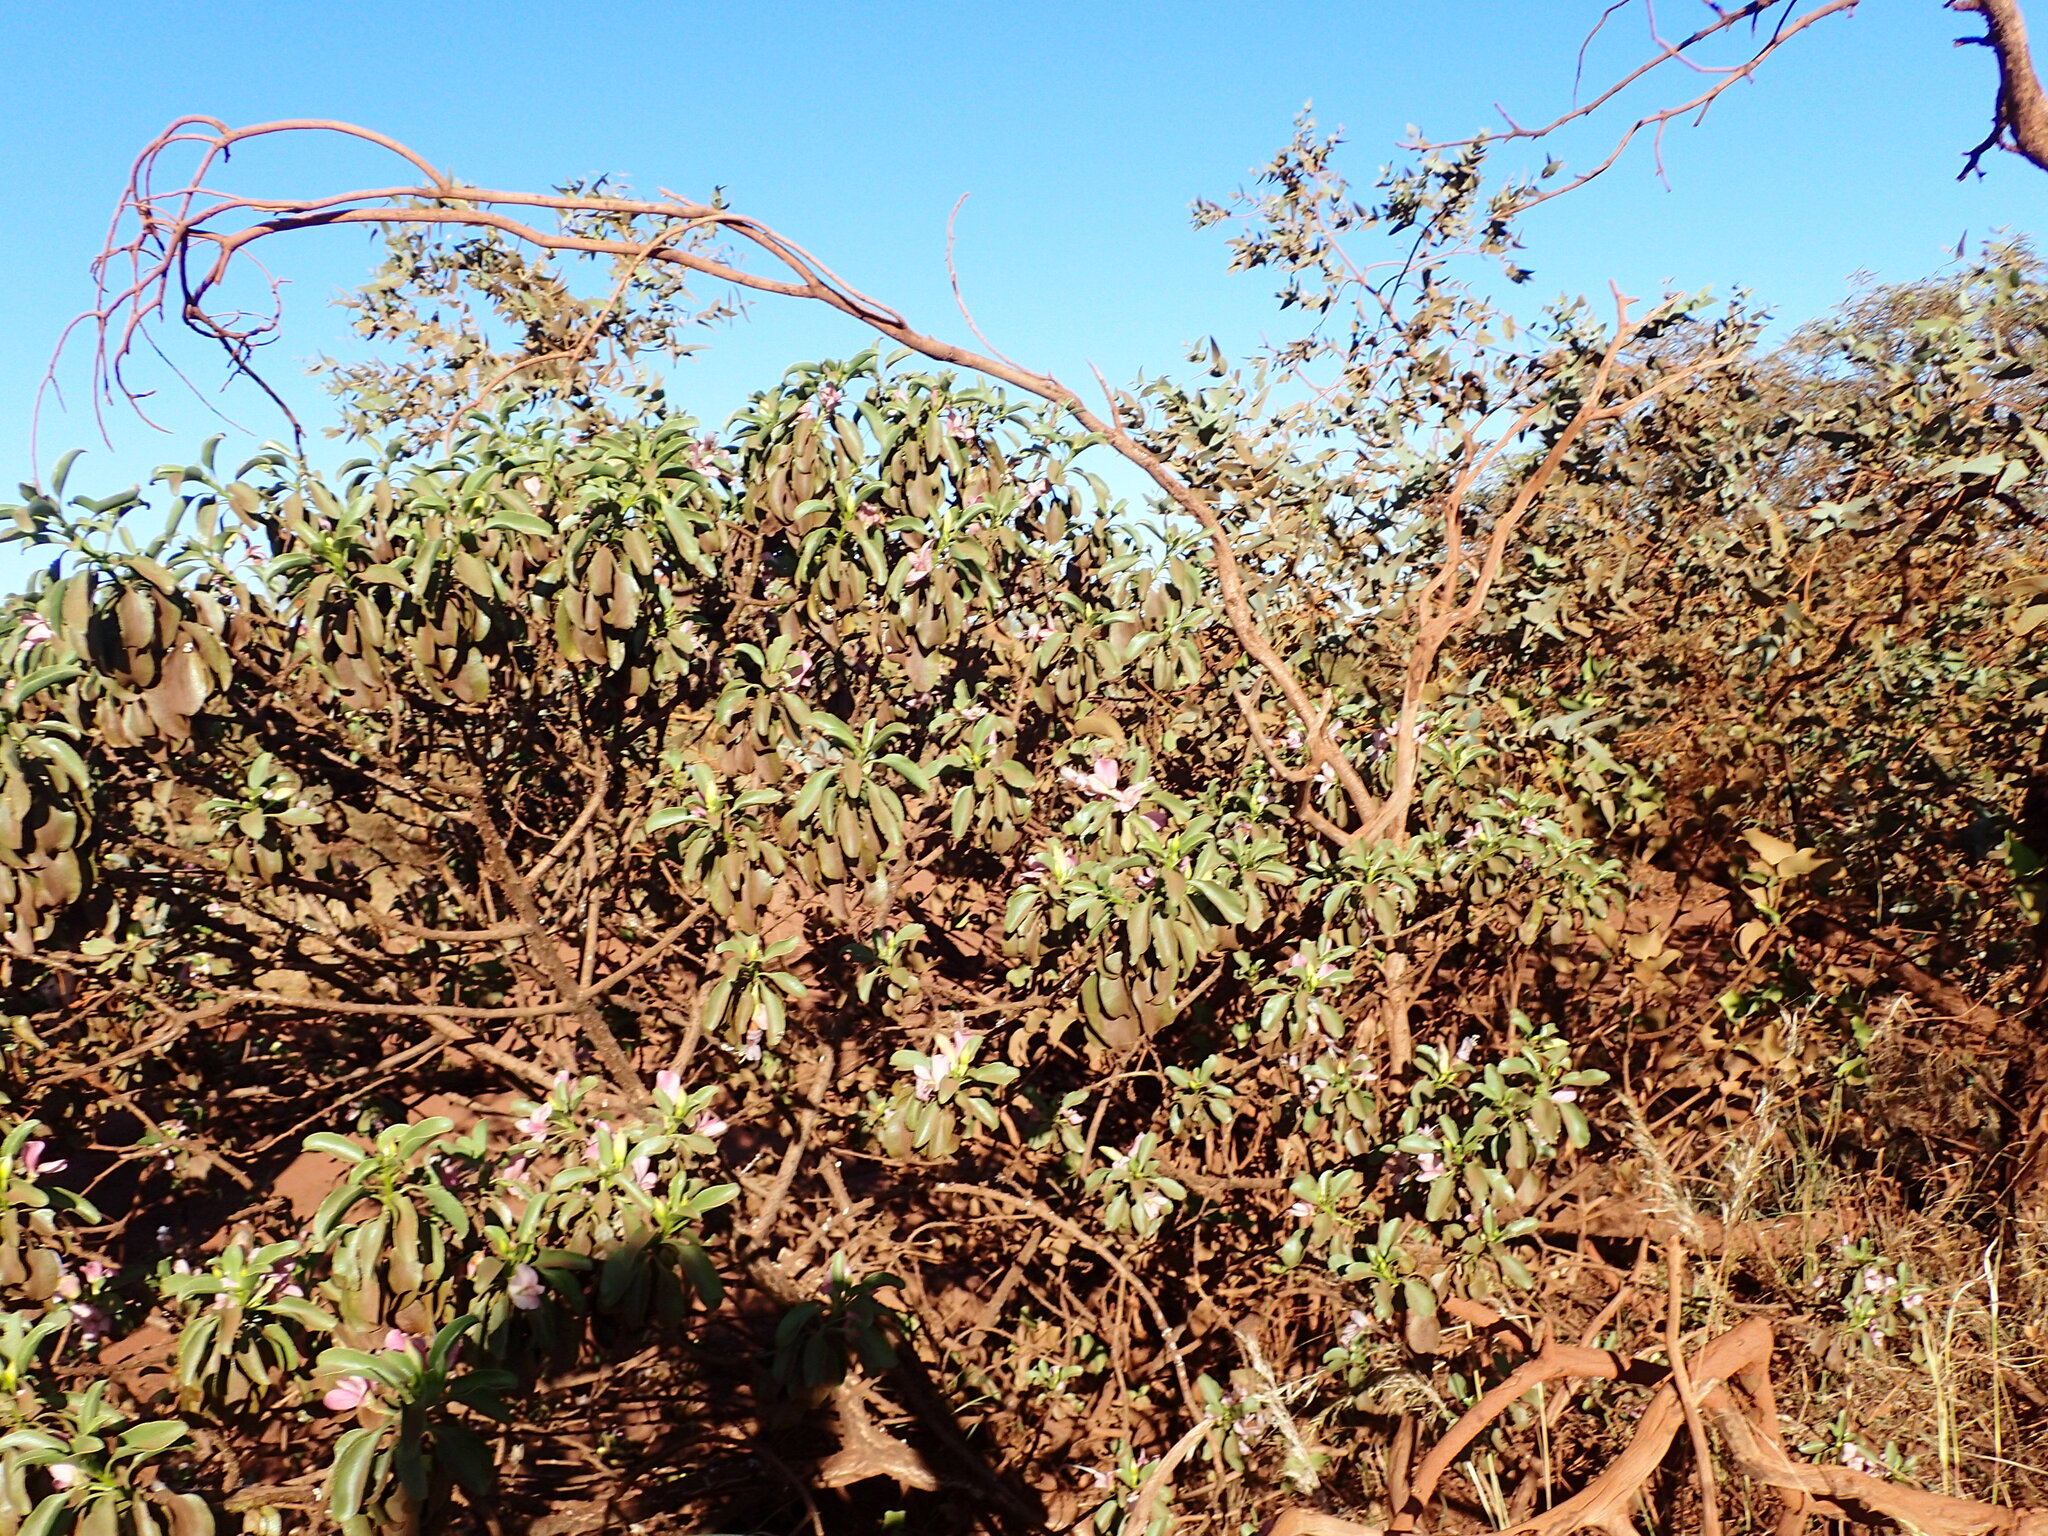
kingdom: Plantae
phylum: Tracheophyta
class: Magnoliopsida
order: Lamiales
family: Scrophulariaceae
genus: Eremophila
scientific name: Eremophila fraseri
